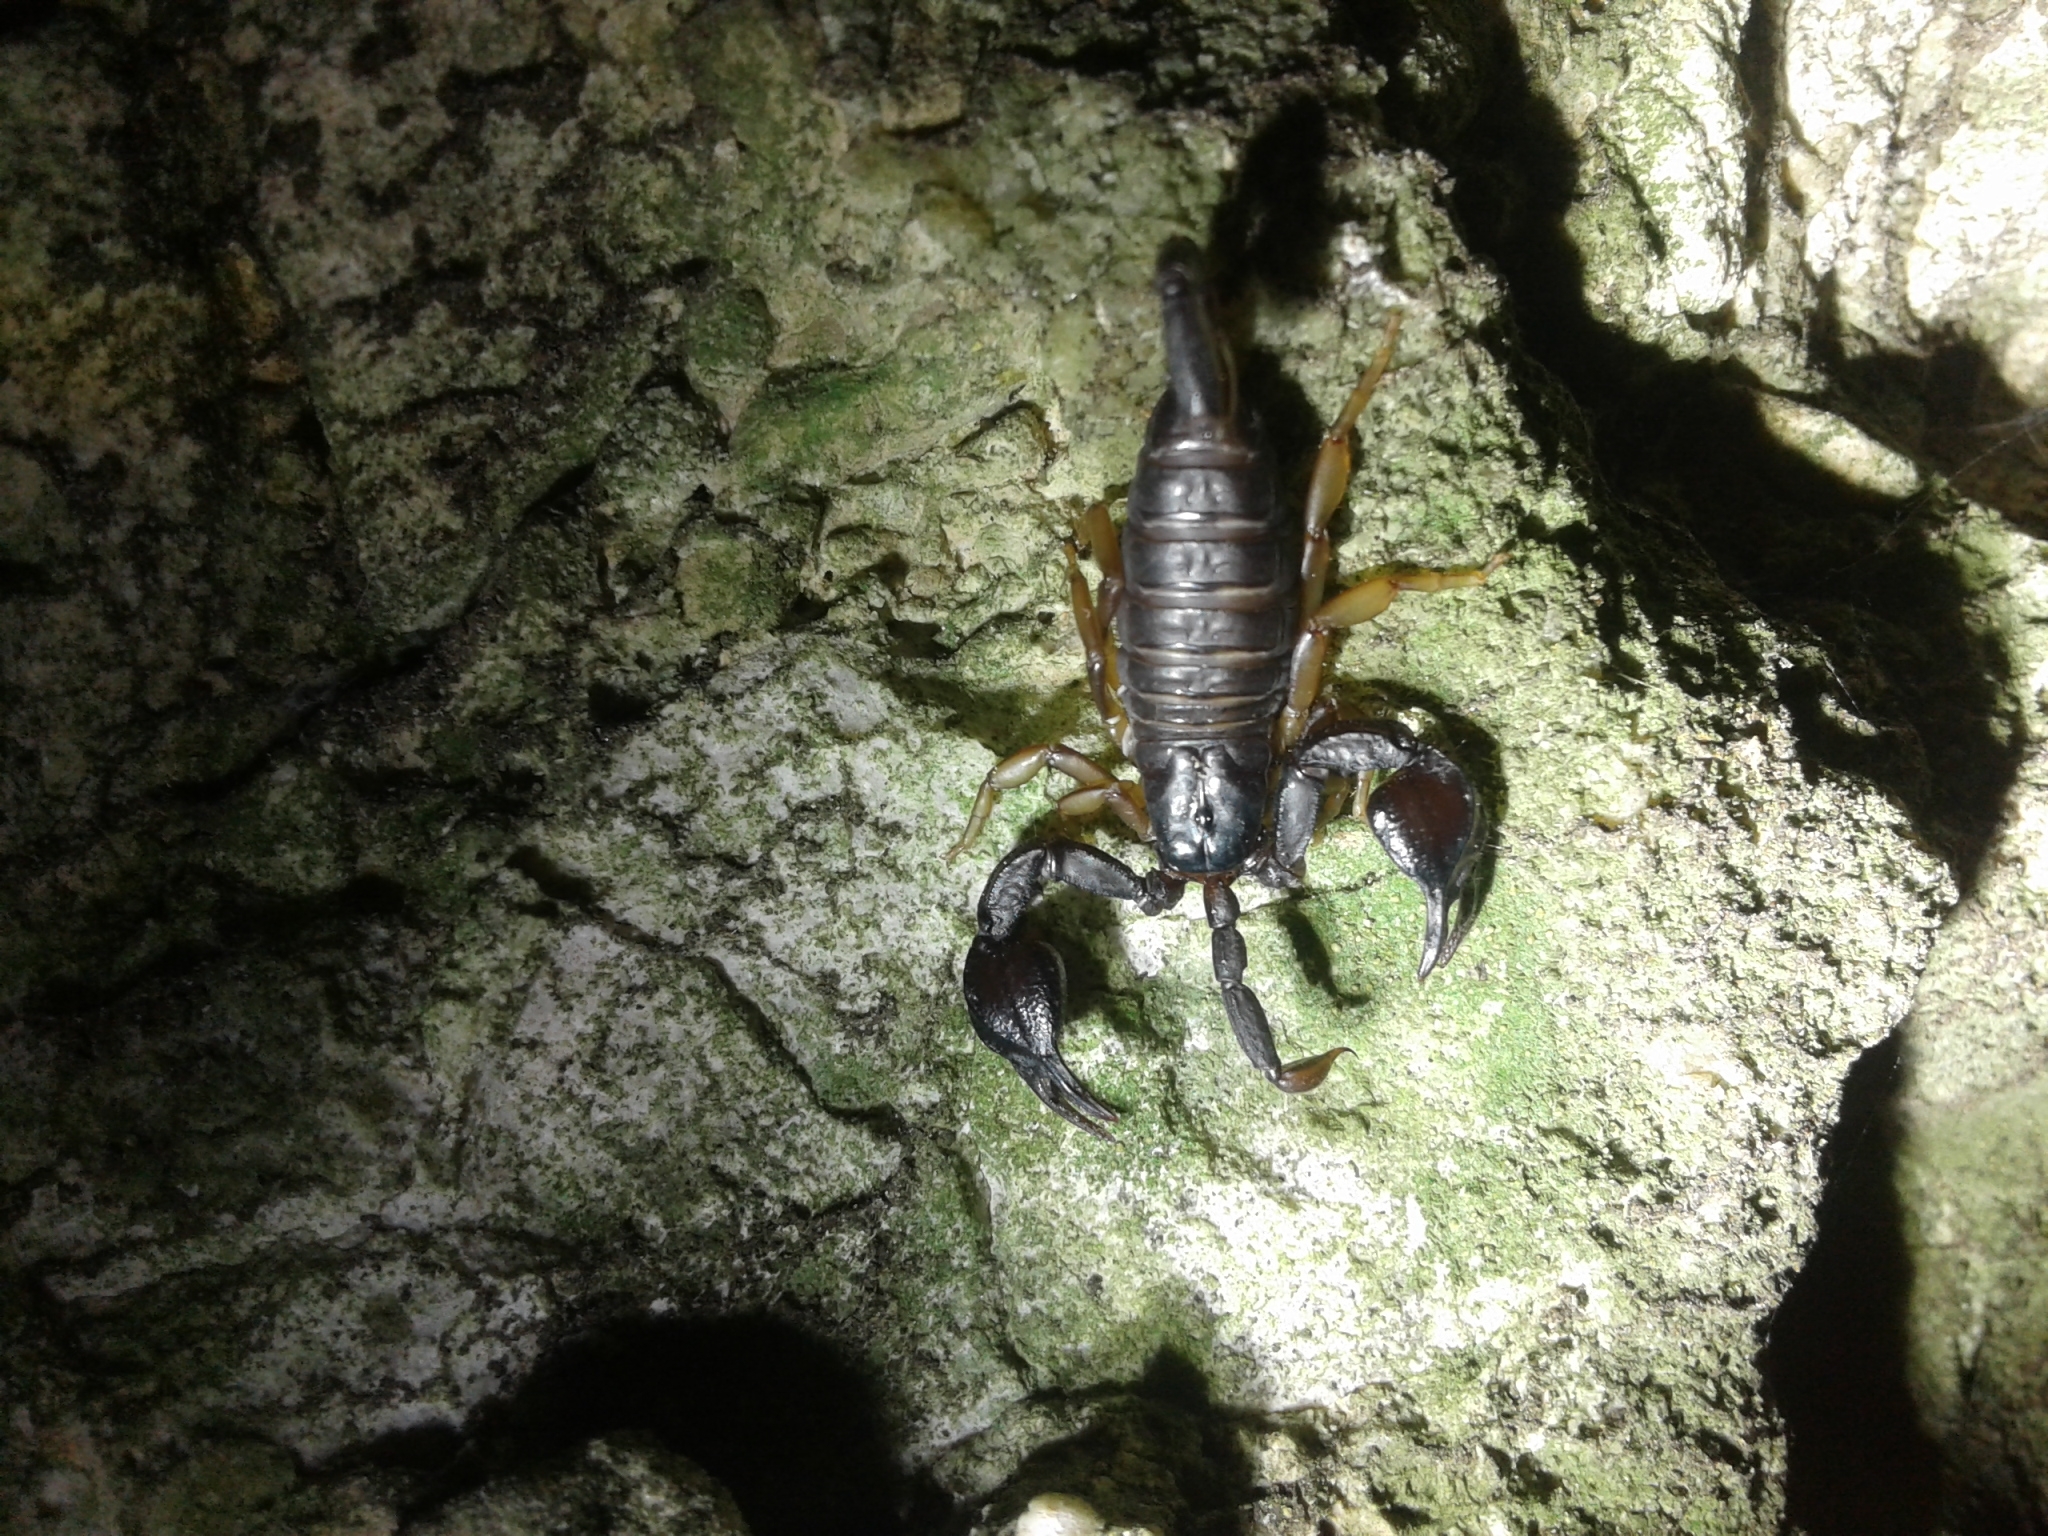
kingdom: Animalia
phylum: Arthropoda
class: Arachnida
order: Scorpiones
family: Euscorpiidae
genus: Euscorpius
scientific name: Euscorpius
